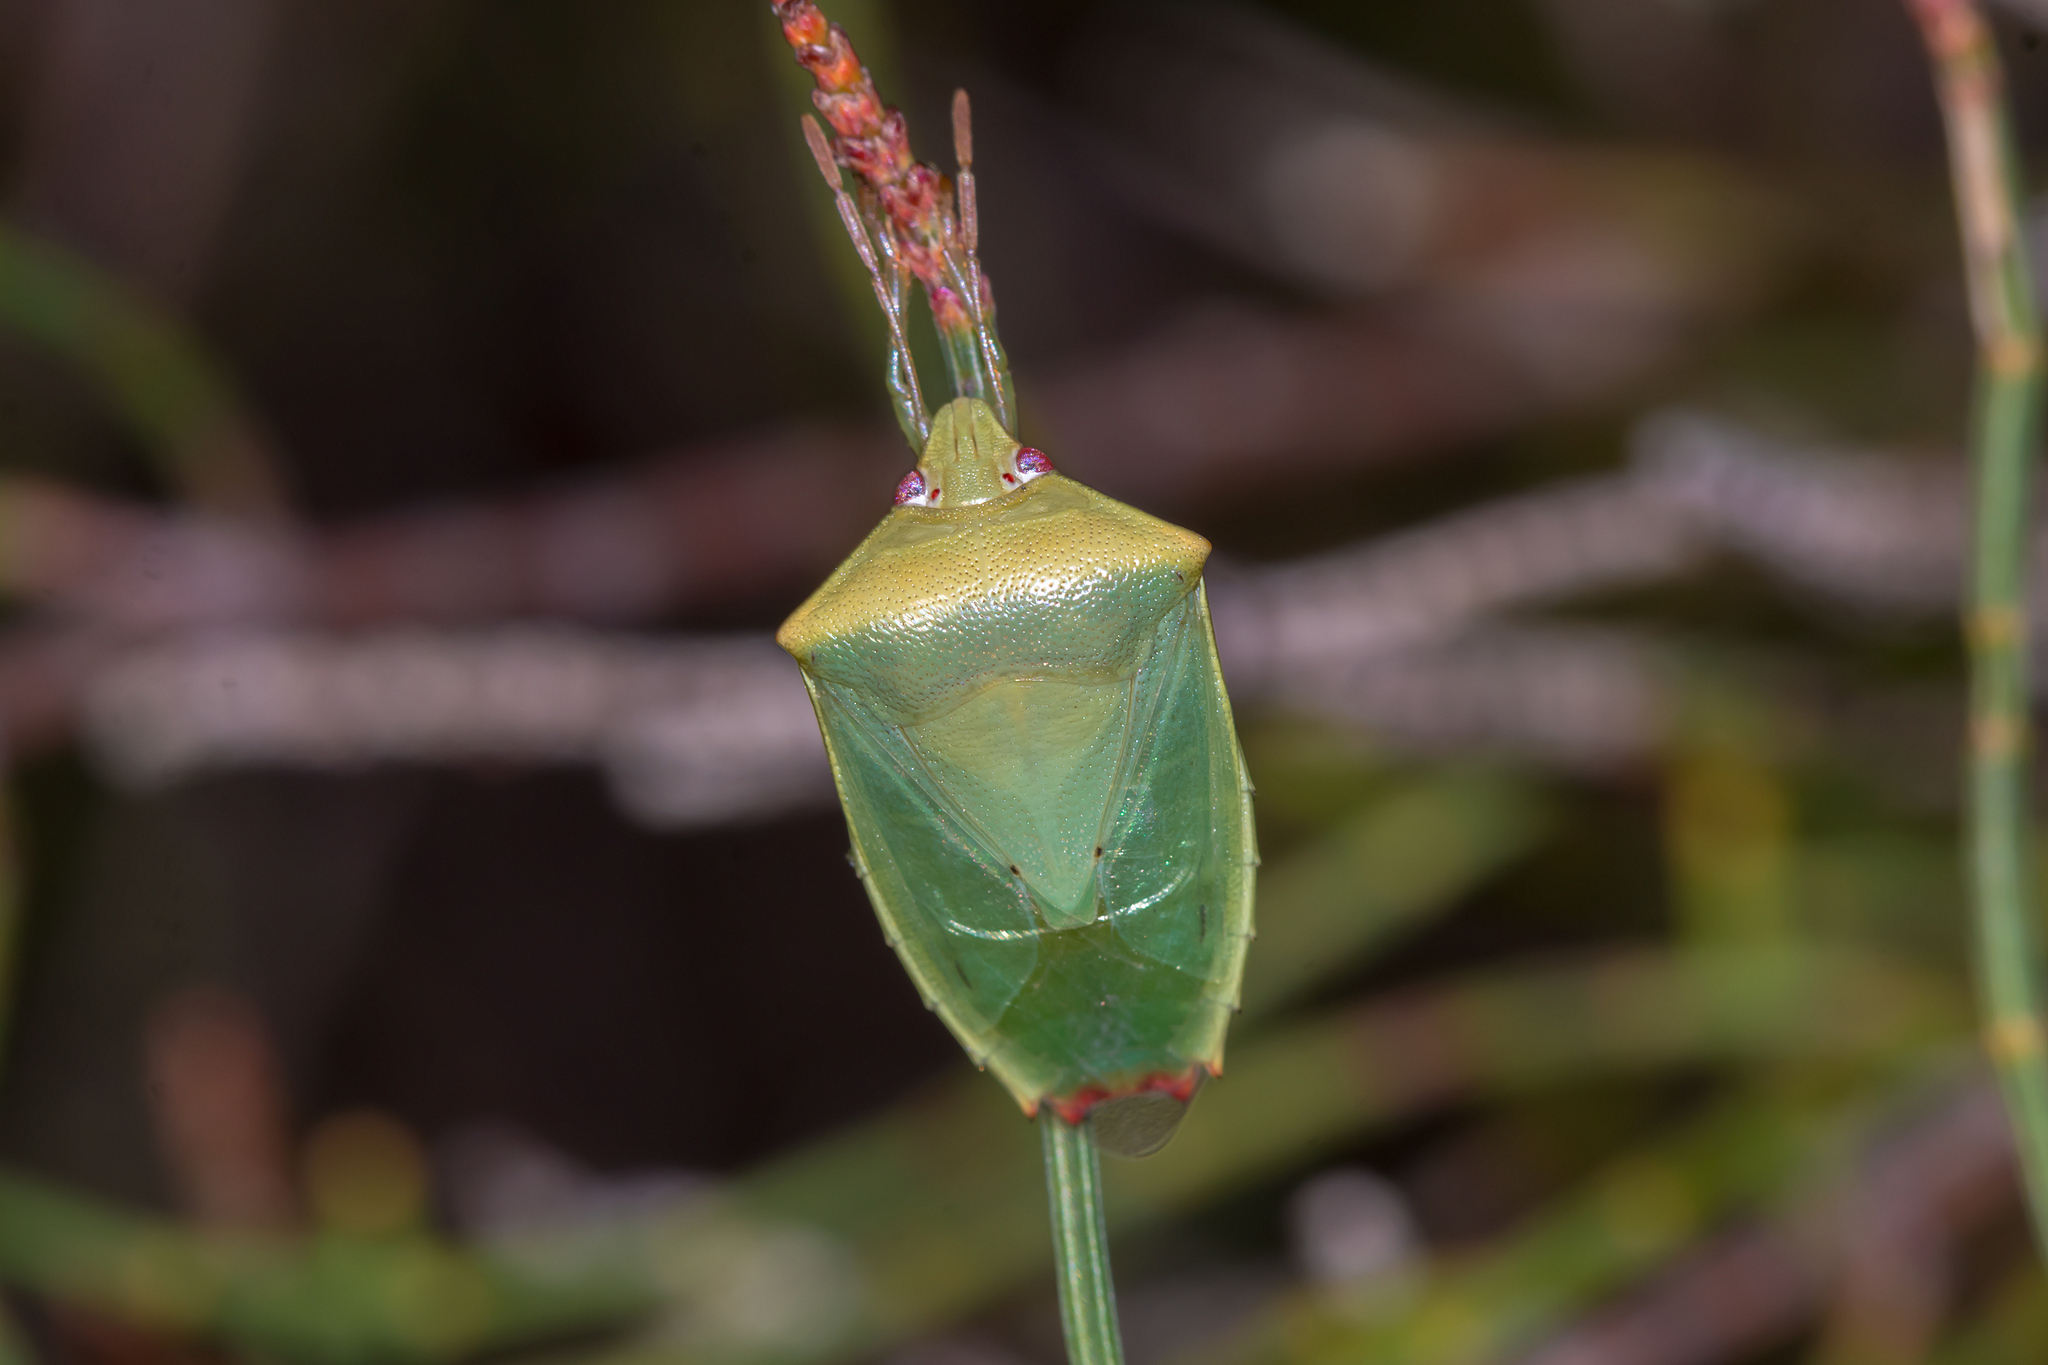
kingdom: Animalia
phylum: Arthropoda
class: Insecta
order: Hemiptera
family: Pentatomidae
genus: Petalaspis
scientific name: Petalaspis
